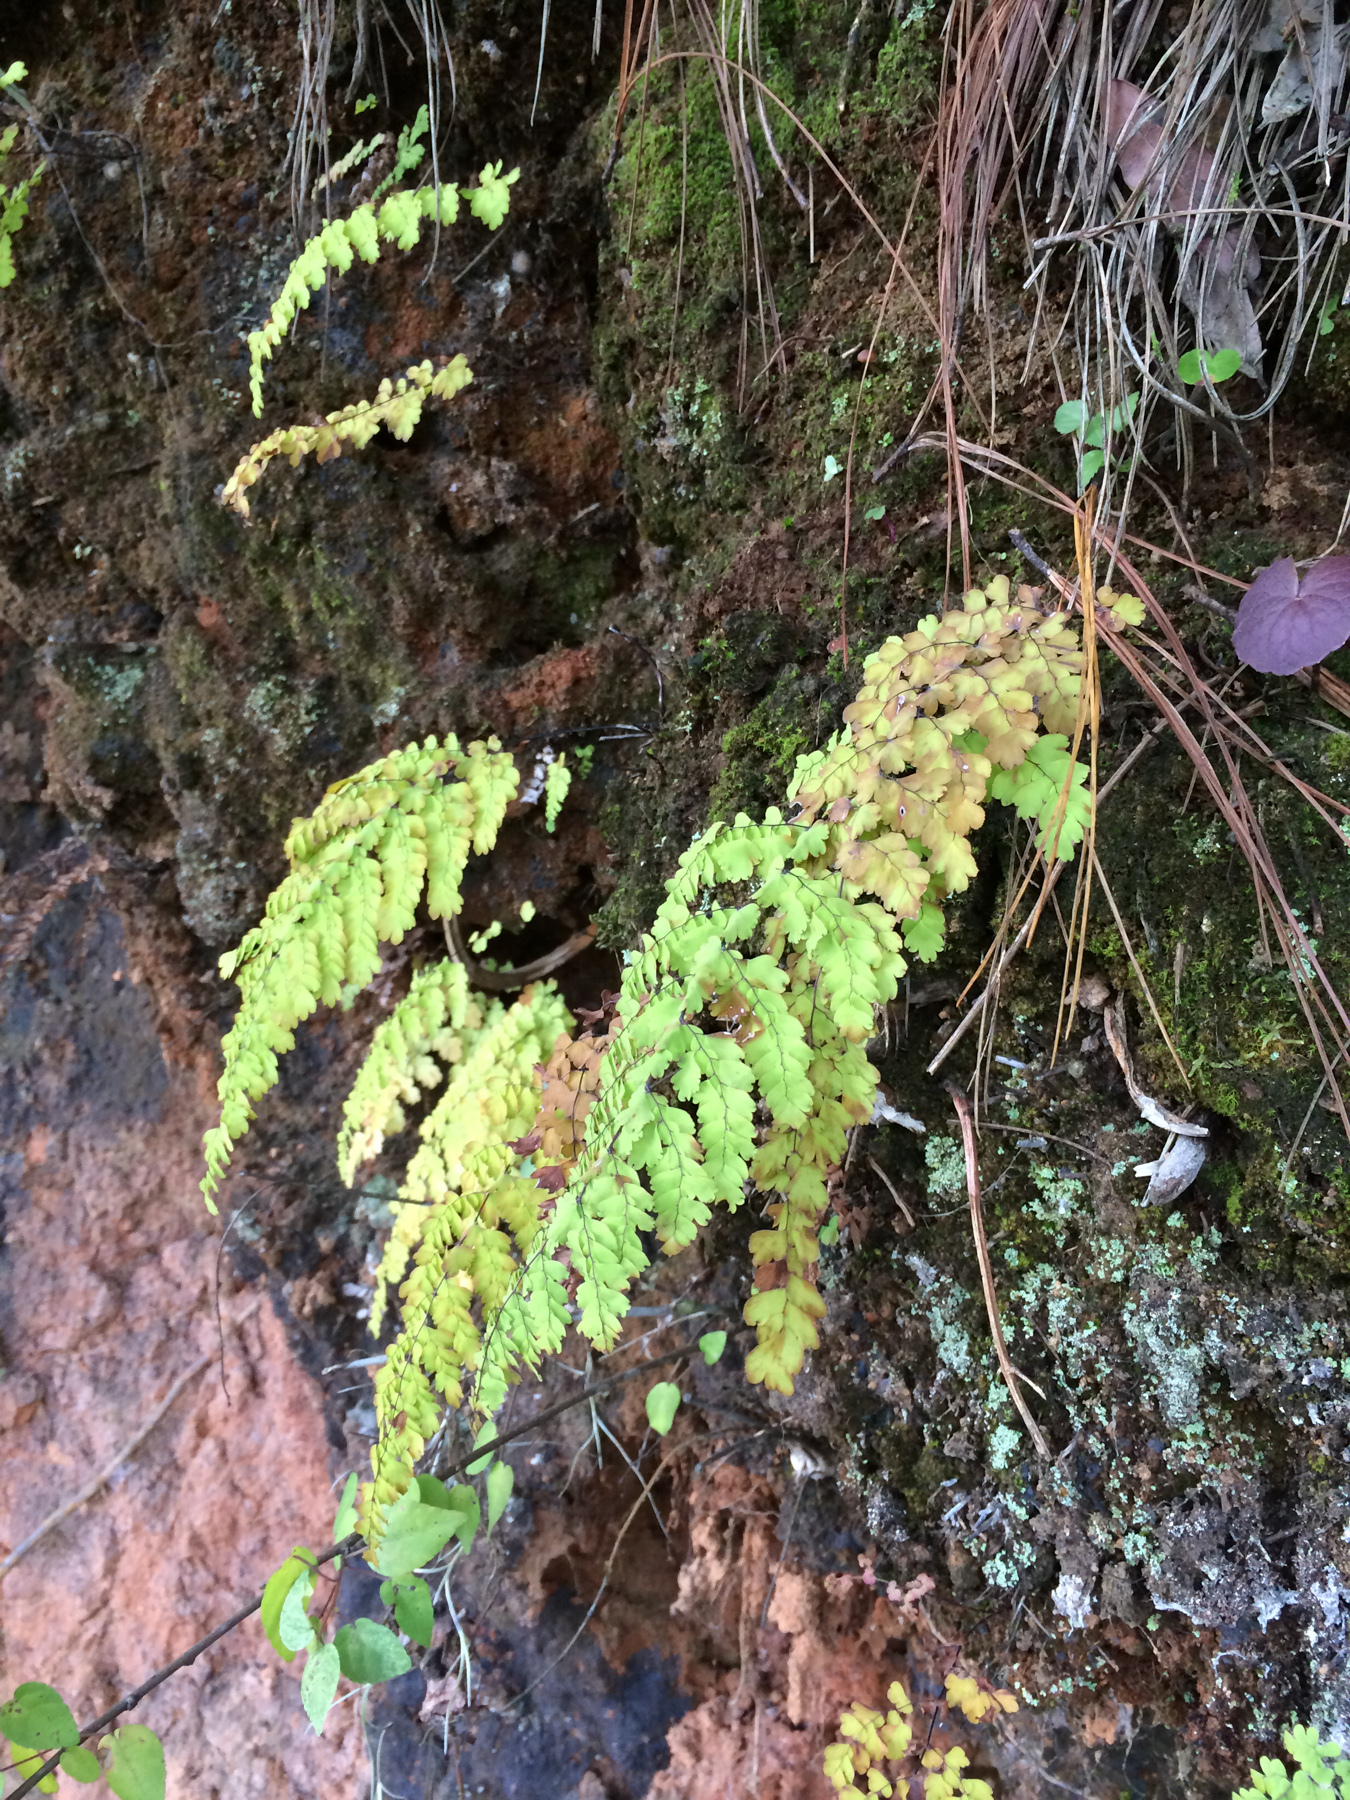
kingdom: Plantae
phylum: Tracheophyta
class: Polypodiopsida
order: Polypodiales
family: Pteridaceae
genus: Adiantum
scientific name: Adiantum concinnum
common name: Brittle maidenhair fern
